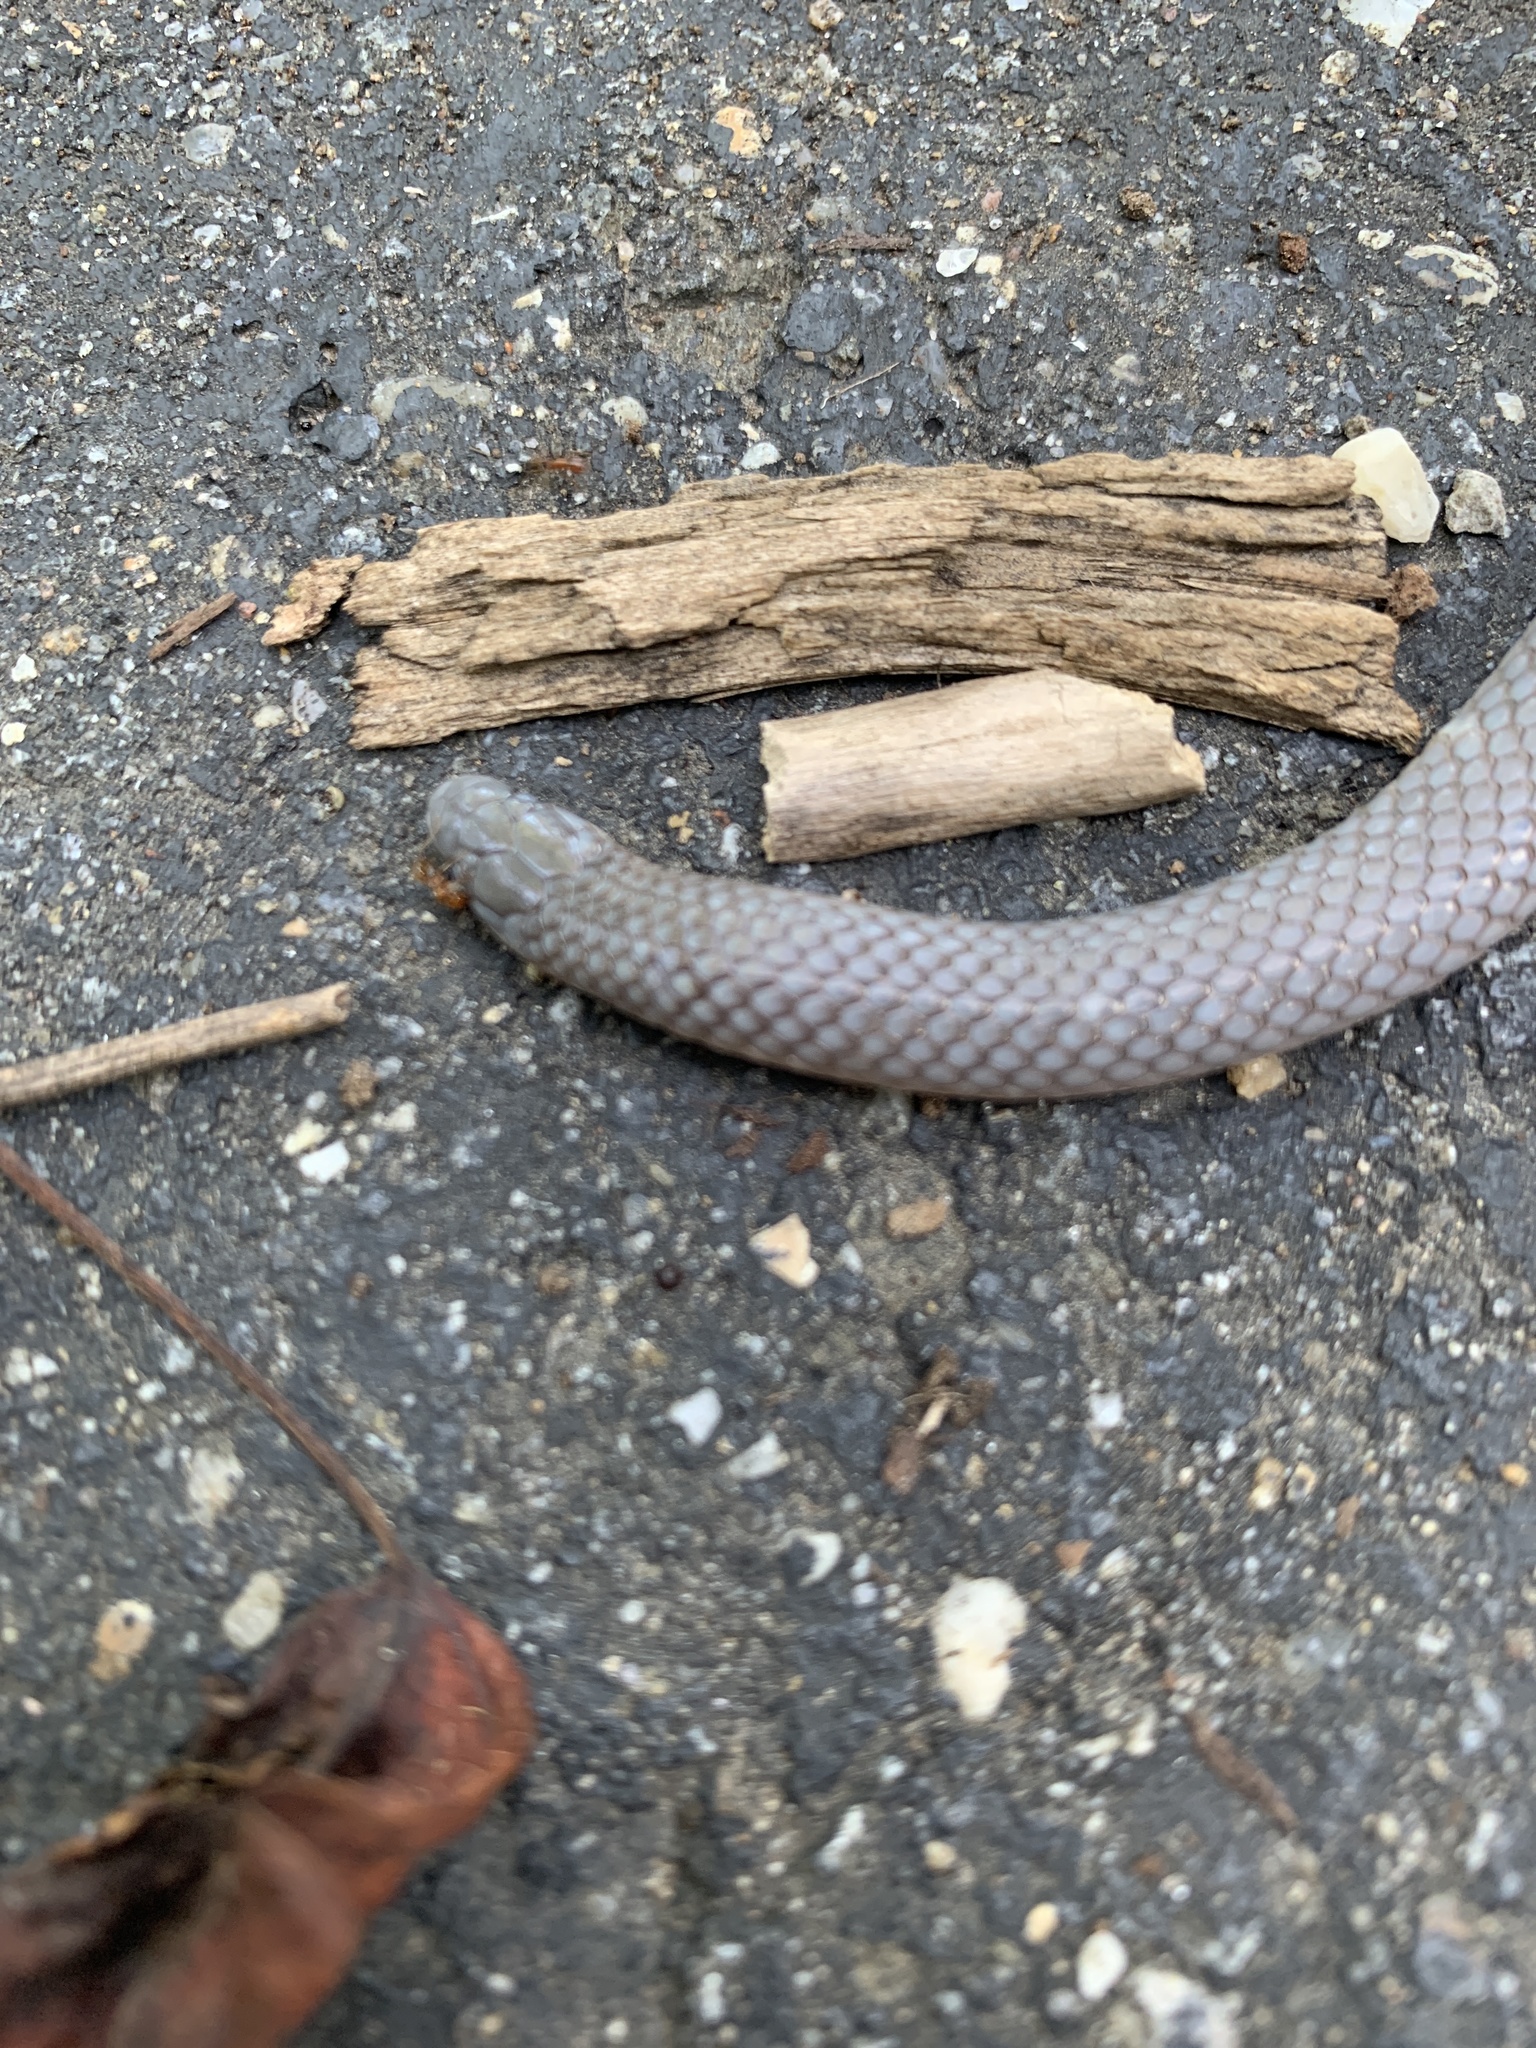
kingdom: Animalia
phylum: Chordata
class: Squamata
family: Colubridae
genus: Carphophis
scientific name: Carphophis amoenus
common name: Eastern worm snake
